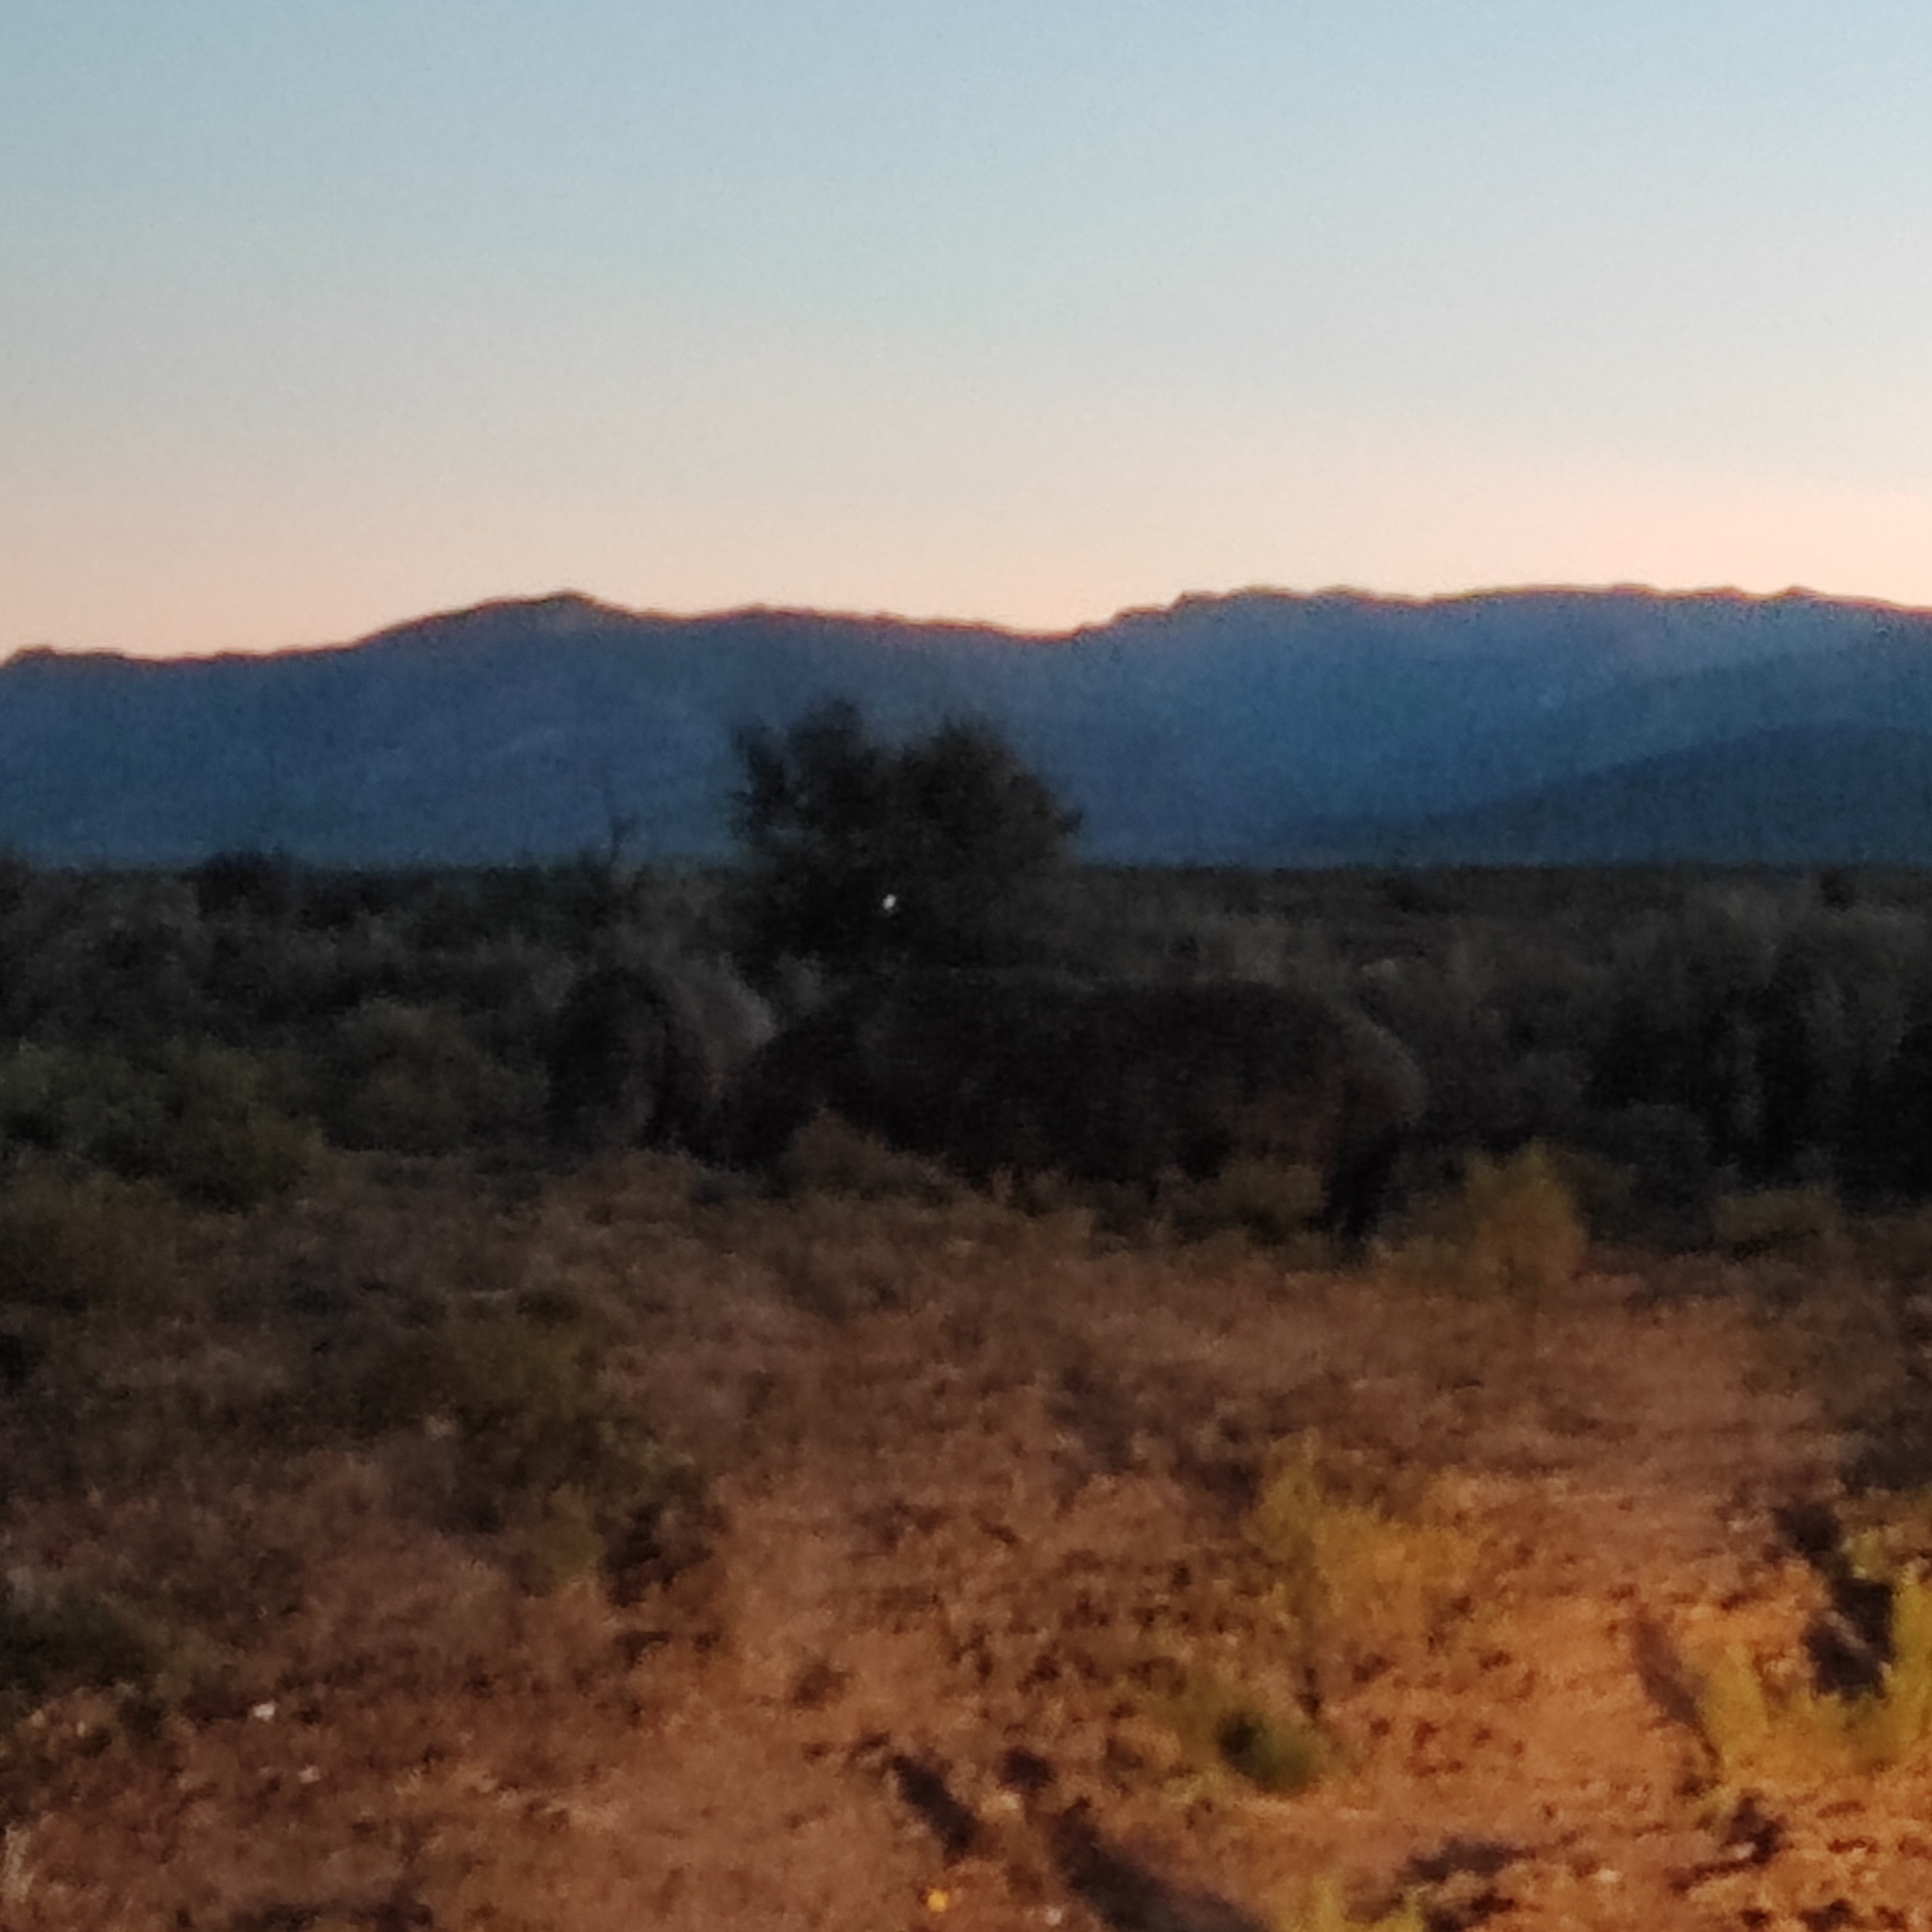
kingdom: Animalia
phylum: Chordata
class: Mammalia
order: Artiodactyla
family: Hippopotamidae
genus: Hippopotamus
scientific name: Hippopotamus amphibius
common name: Common hippopotamus
